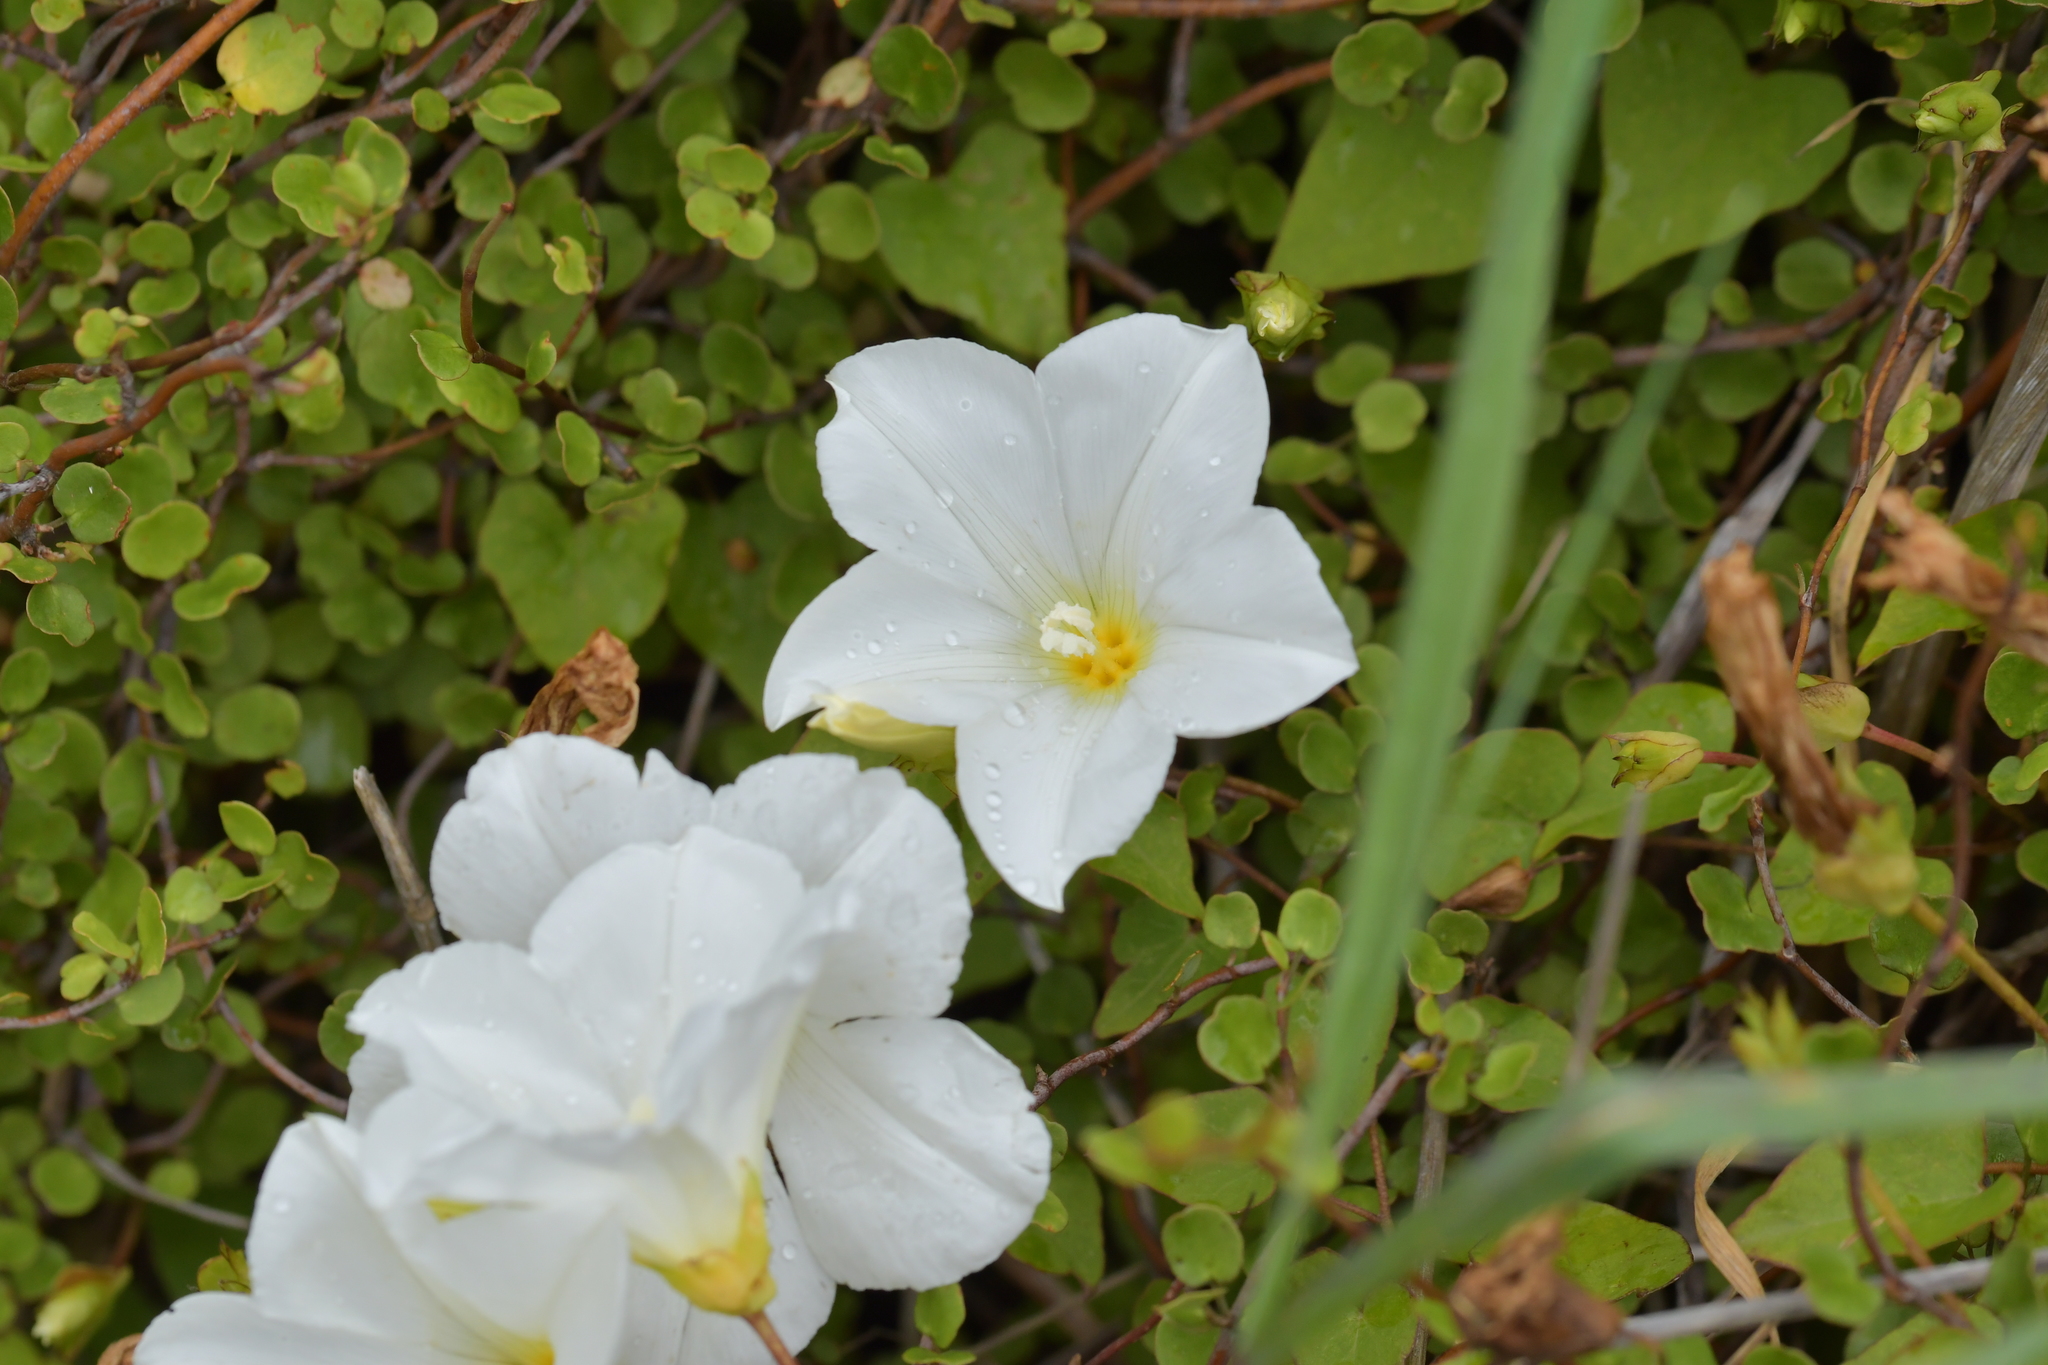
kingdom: Plantae
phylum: Tracheophyta
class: Magnoliopsida
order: Solanales
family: Convolvulaceae
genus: Calystegia
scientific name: Calystegia tuguriorum
